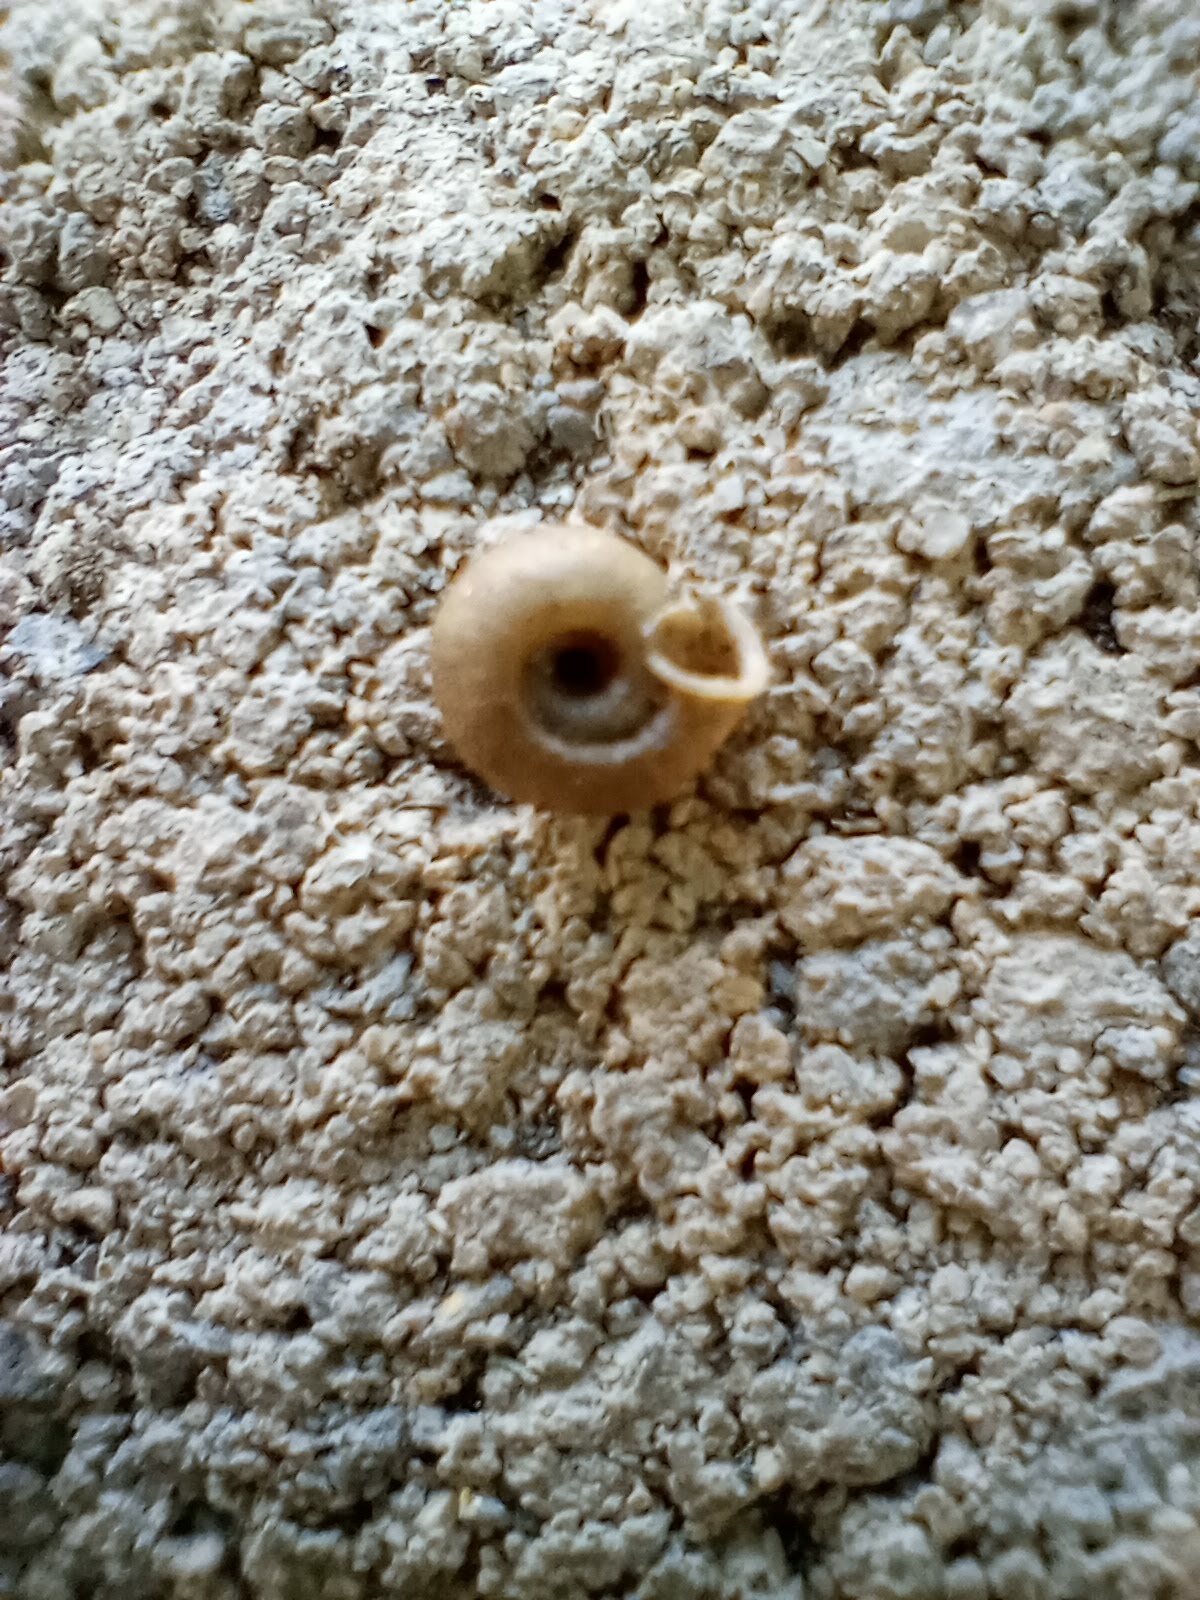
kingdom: Animalia
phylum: Mollusca
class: Gastropoda
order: Stylommatophora
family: Polygyridae
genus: Polygyra
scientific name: Polygyra cereolus
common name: Southern flatcone snail
